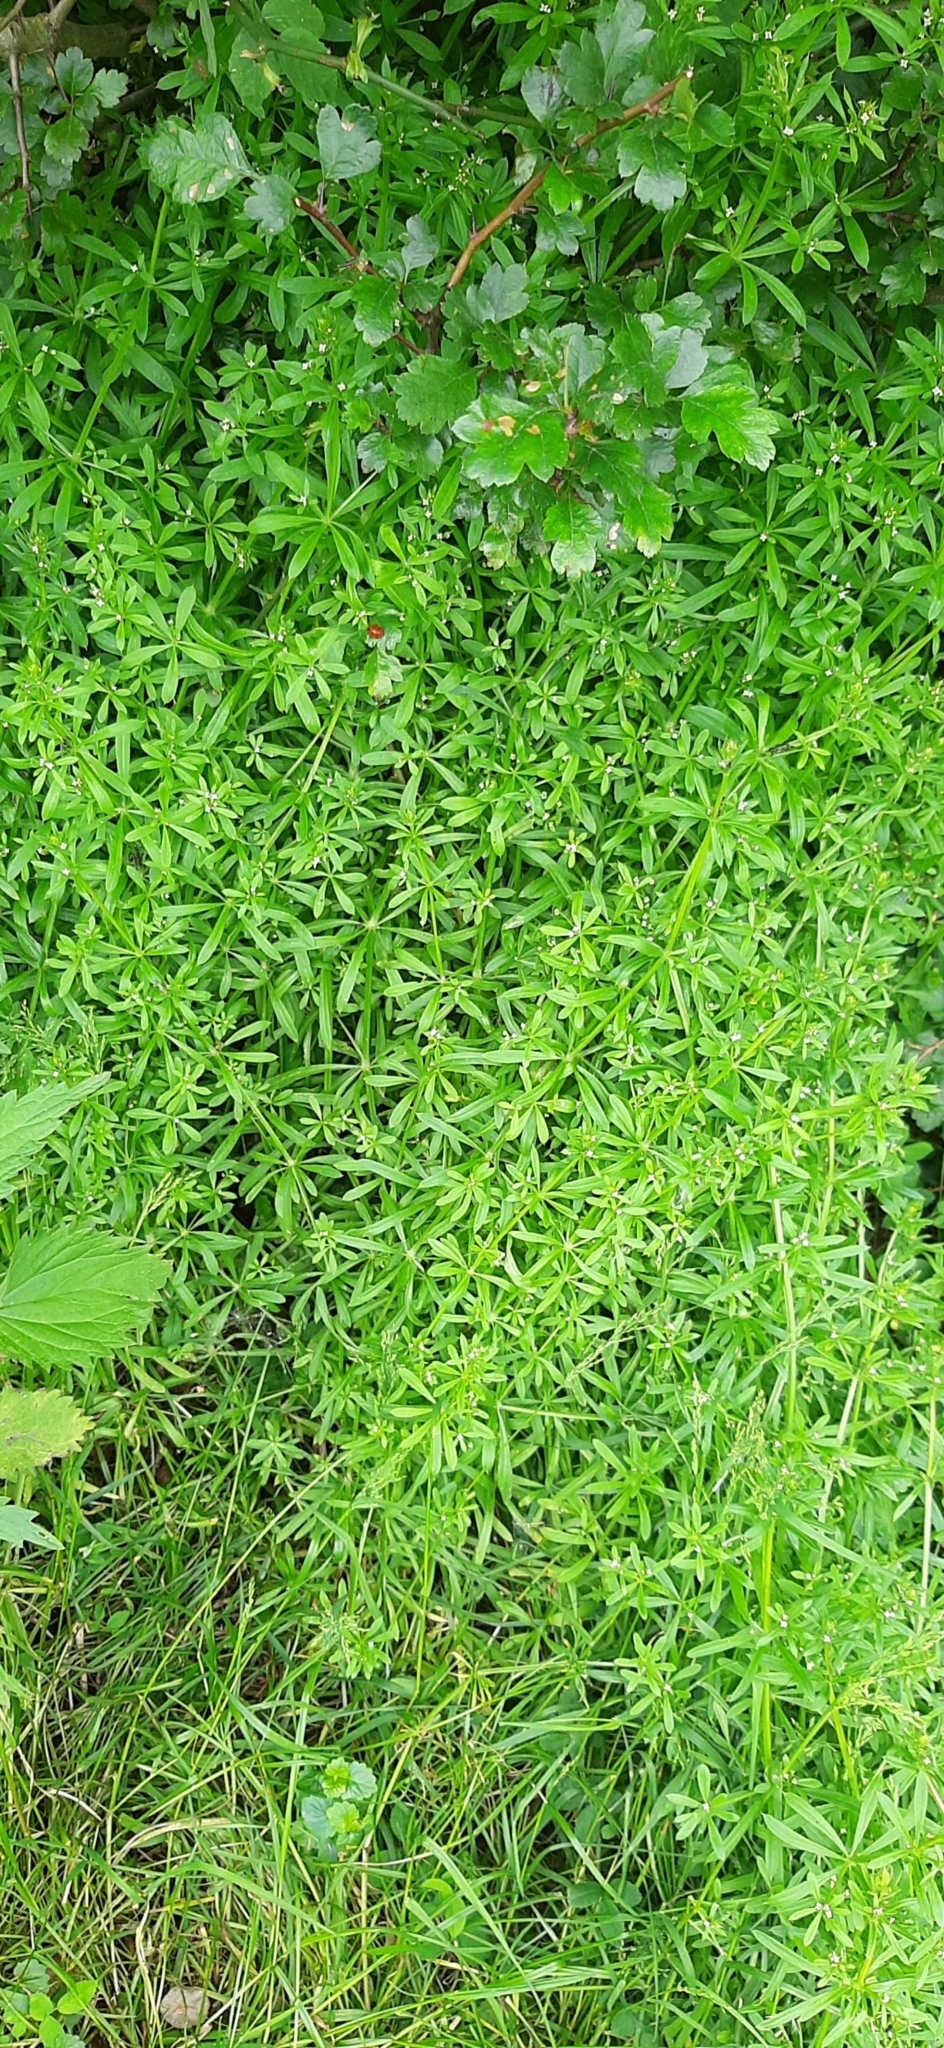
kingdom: Plantae
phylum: Tracheophyta
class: Magnoliopsida
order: Gentianales
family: Rubiaceae
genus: Galium
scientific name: Galium aparine
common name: Cleavers
